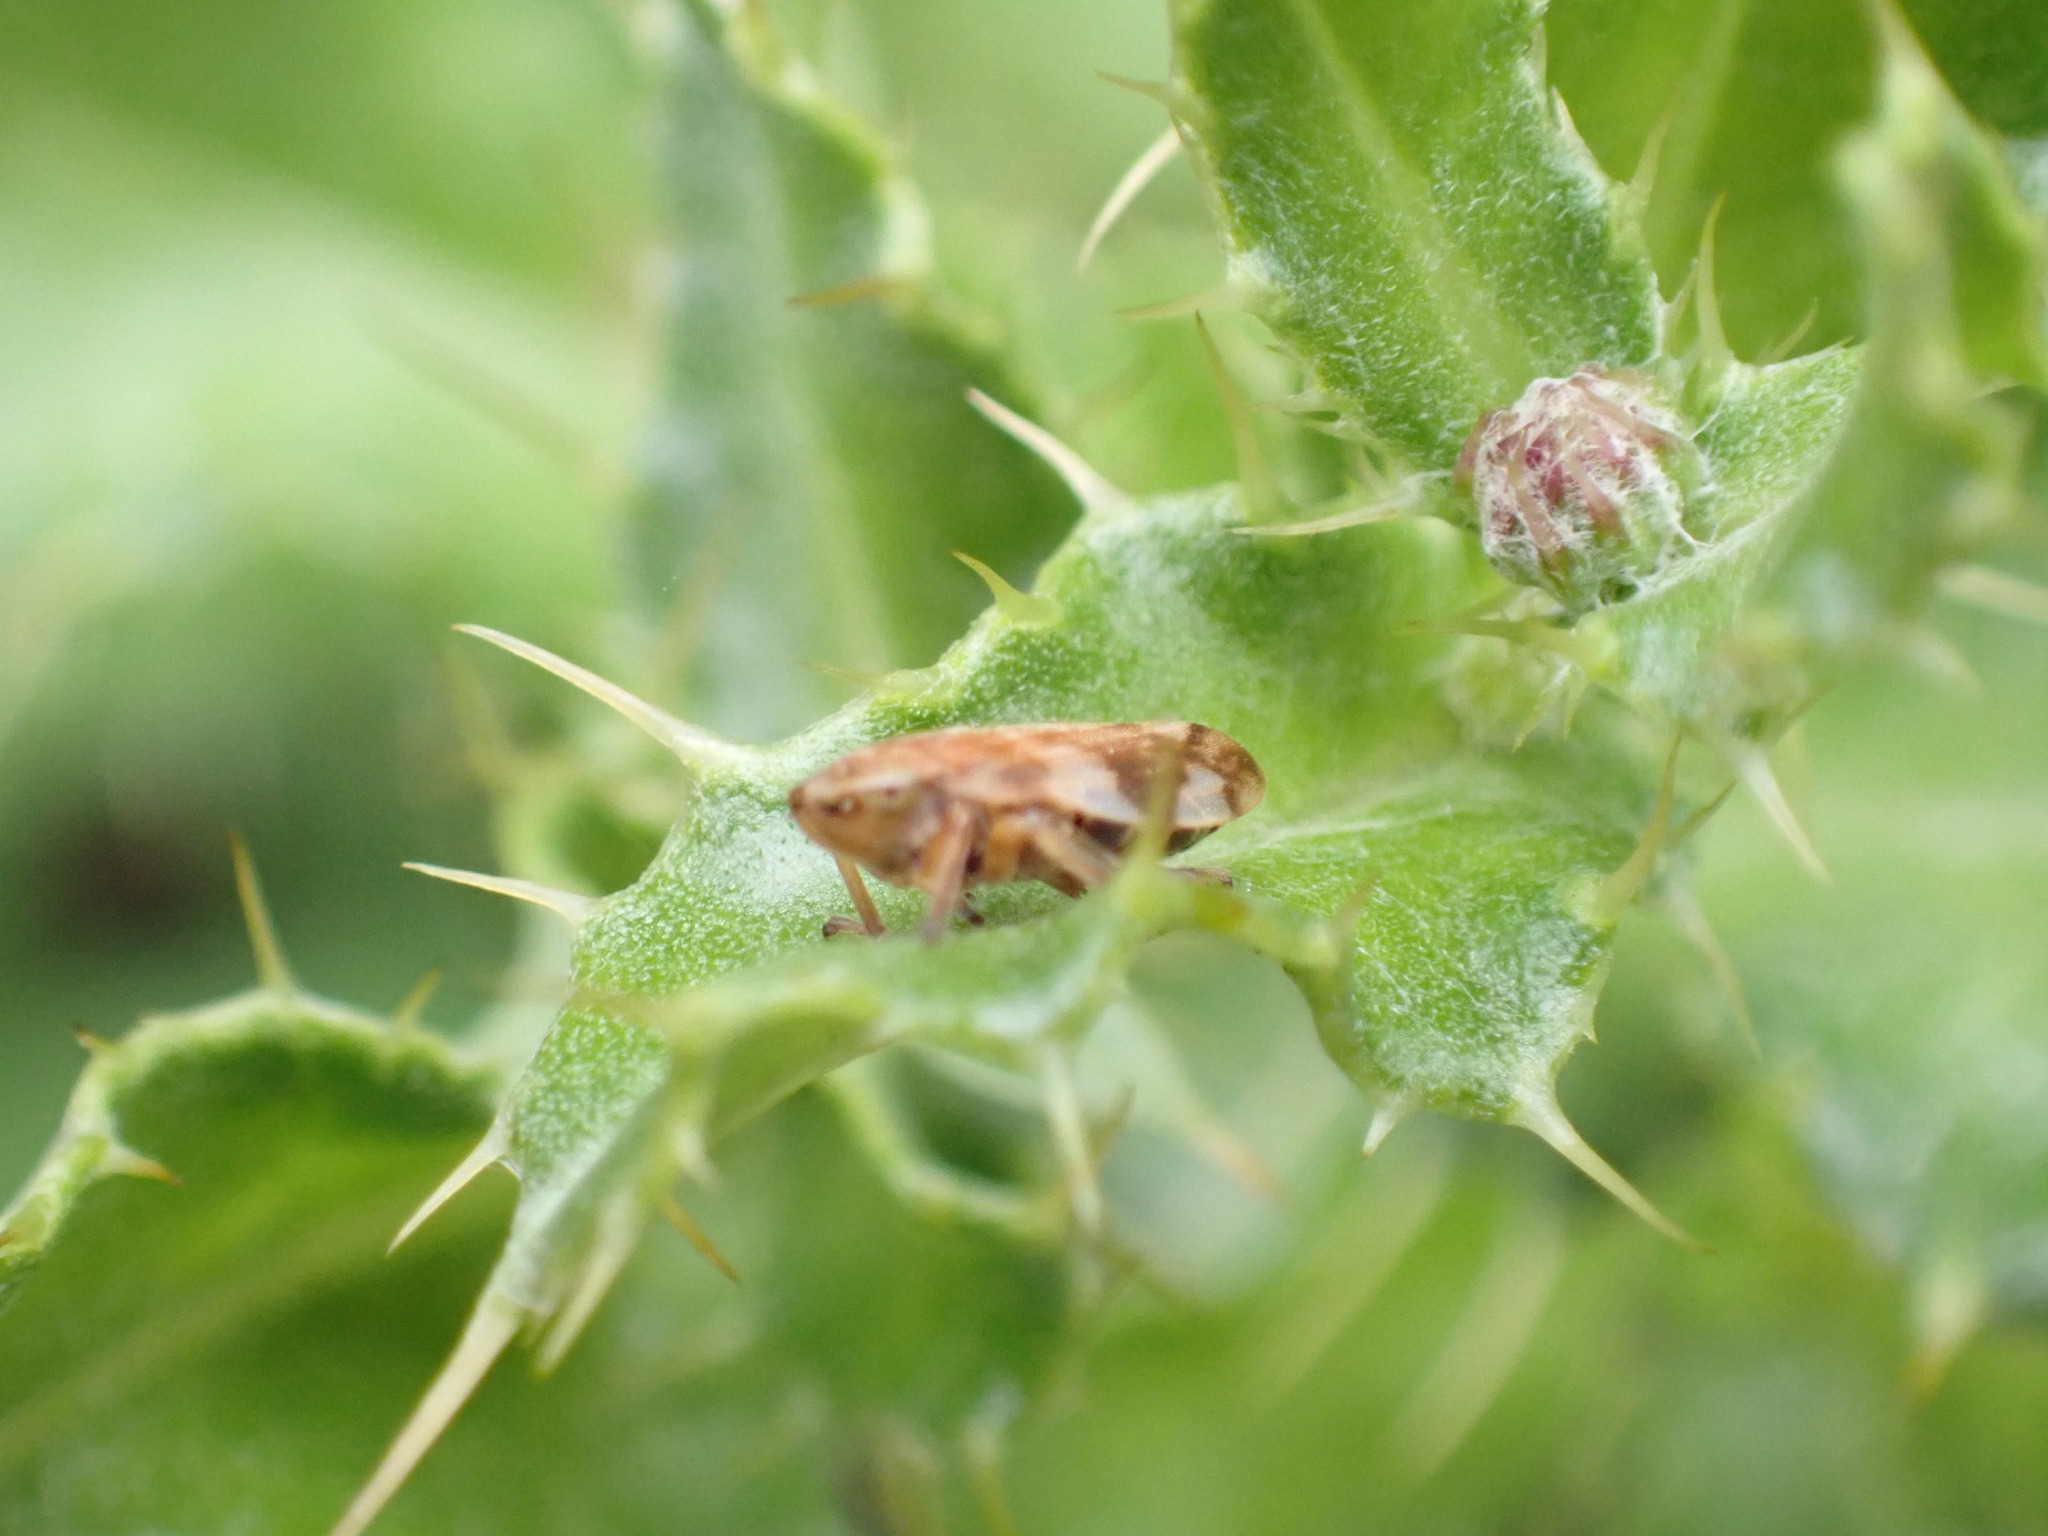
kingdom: Animalia
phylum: Arthropoda
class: Insecta
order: Hemiptera
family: Aphrophoridae
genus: Philaenus
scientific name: Philaenus spumarius
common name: Meadow spittlebug
